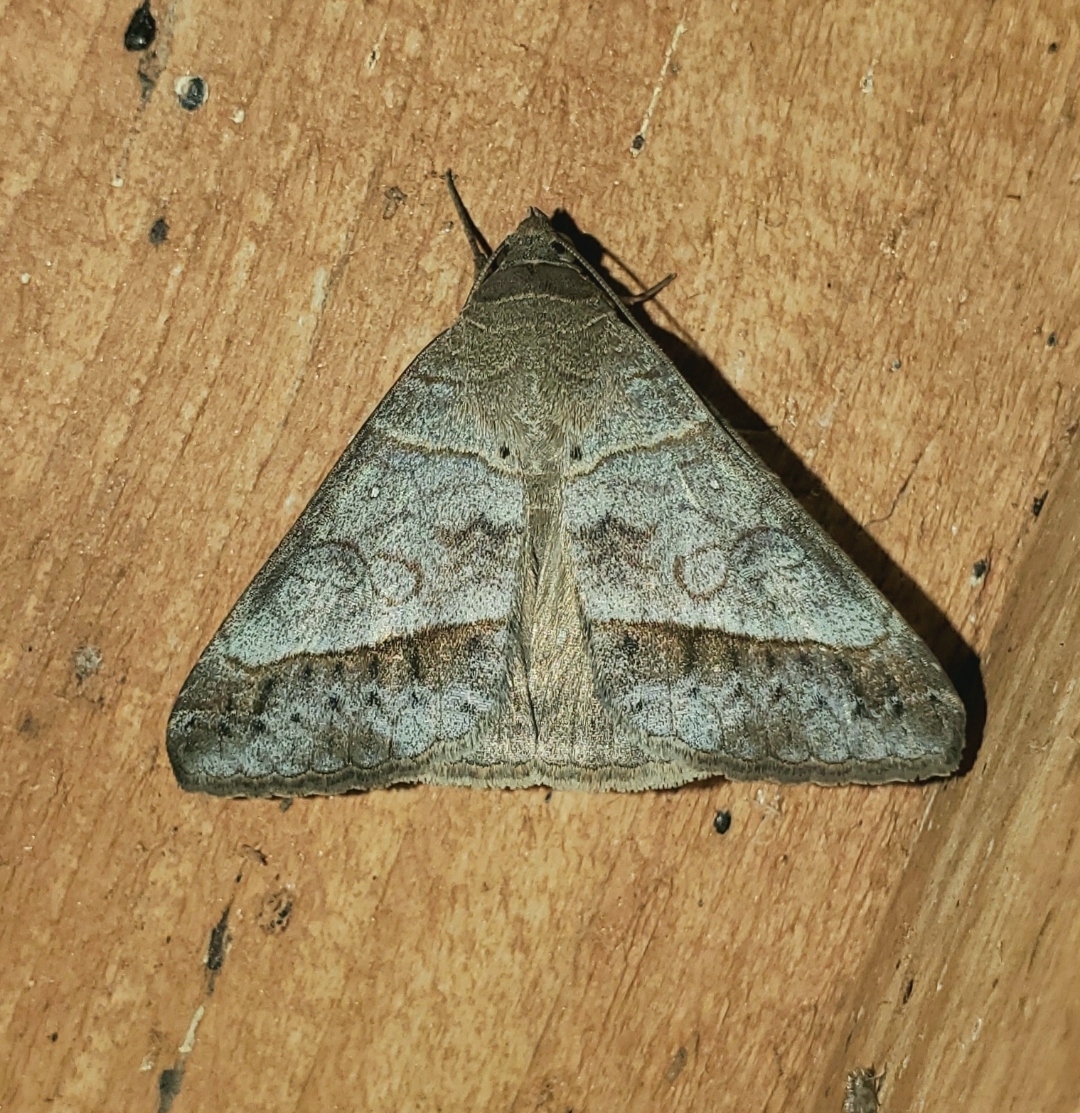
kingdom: Animalia
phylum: Arthropoda
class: Insecta
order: Lepidoptera
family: Erebidae
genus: Mocis
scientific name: Mocis latipes
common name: Striped grass looper
